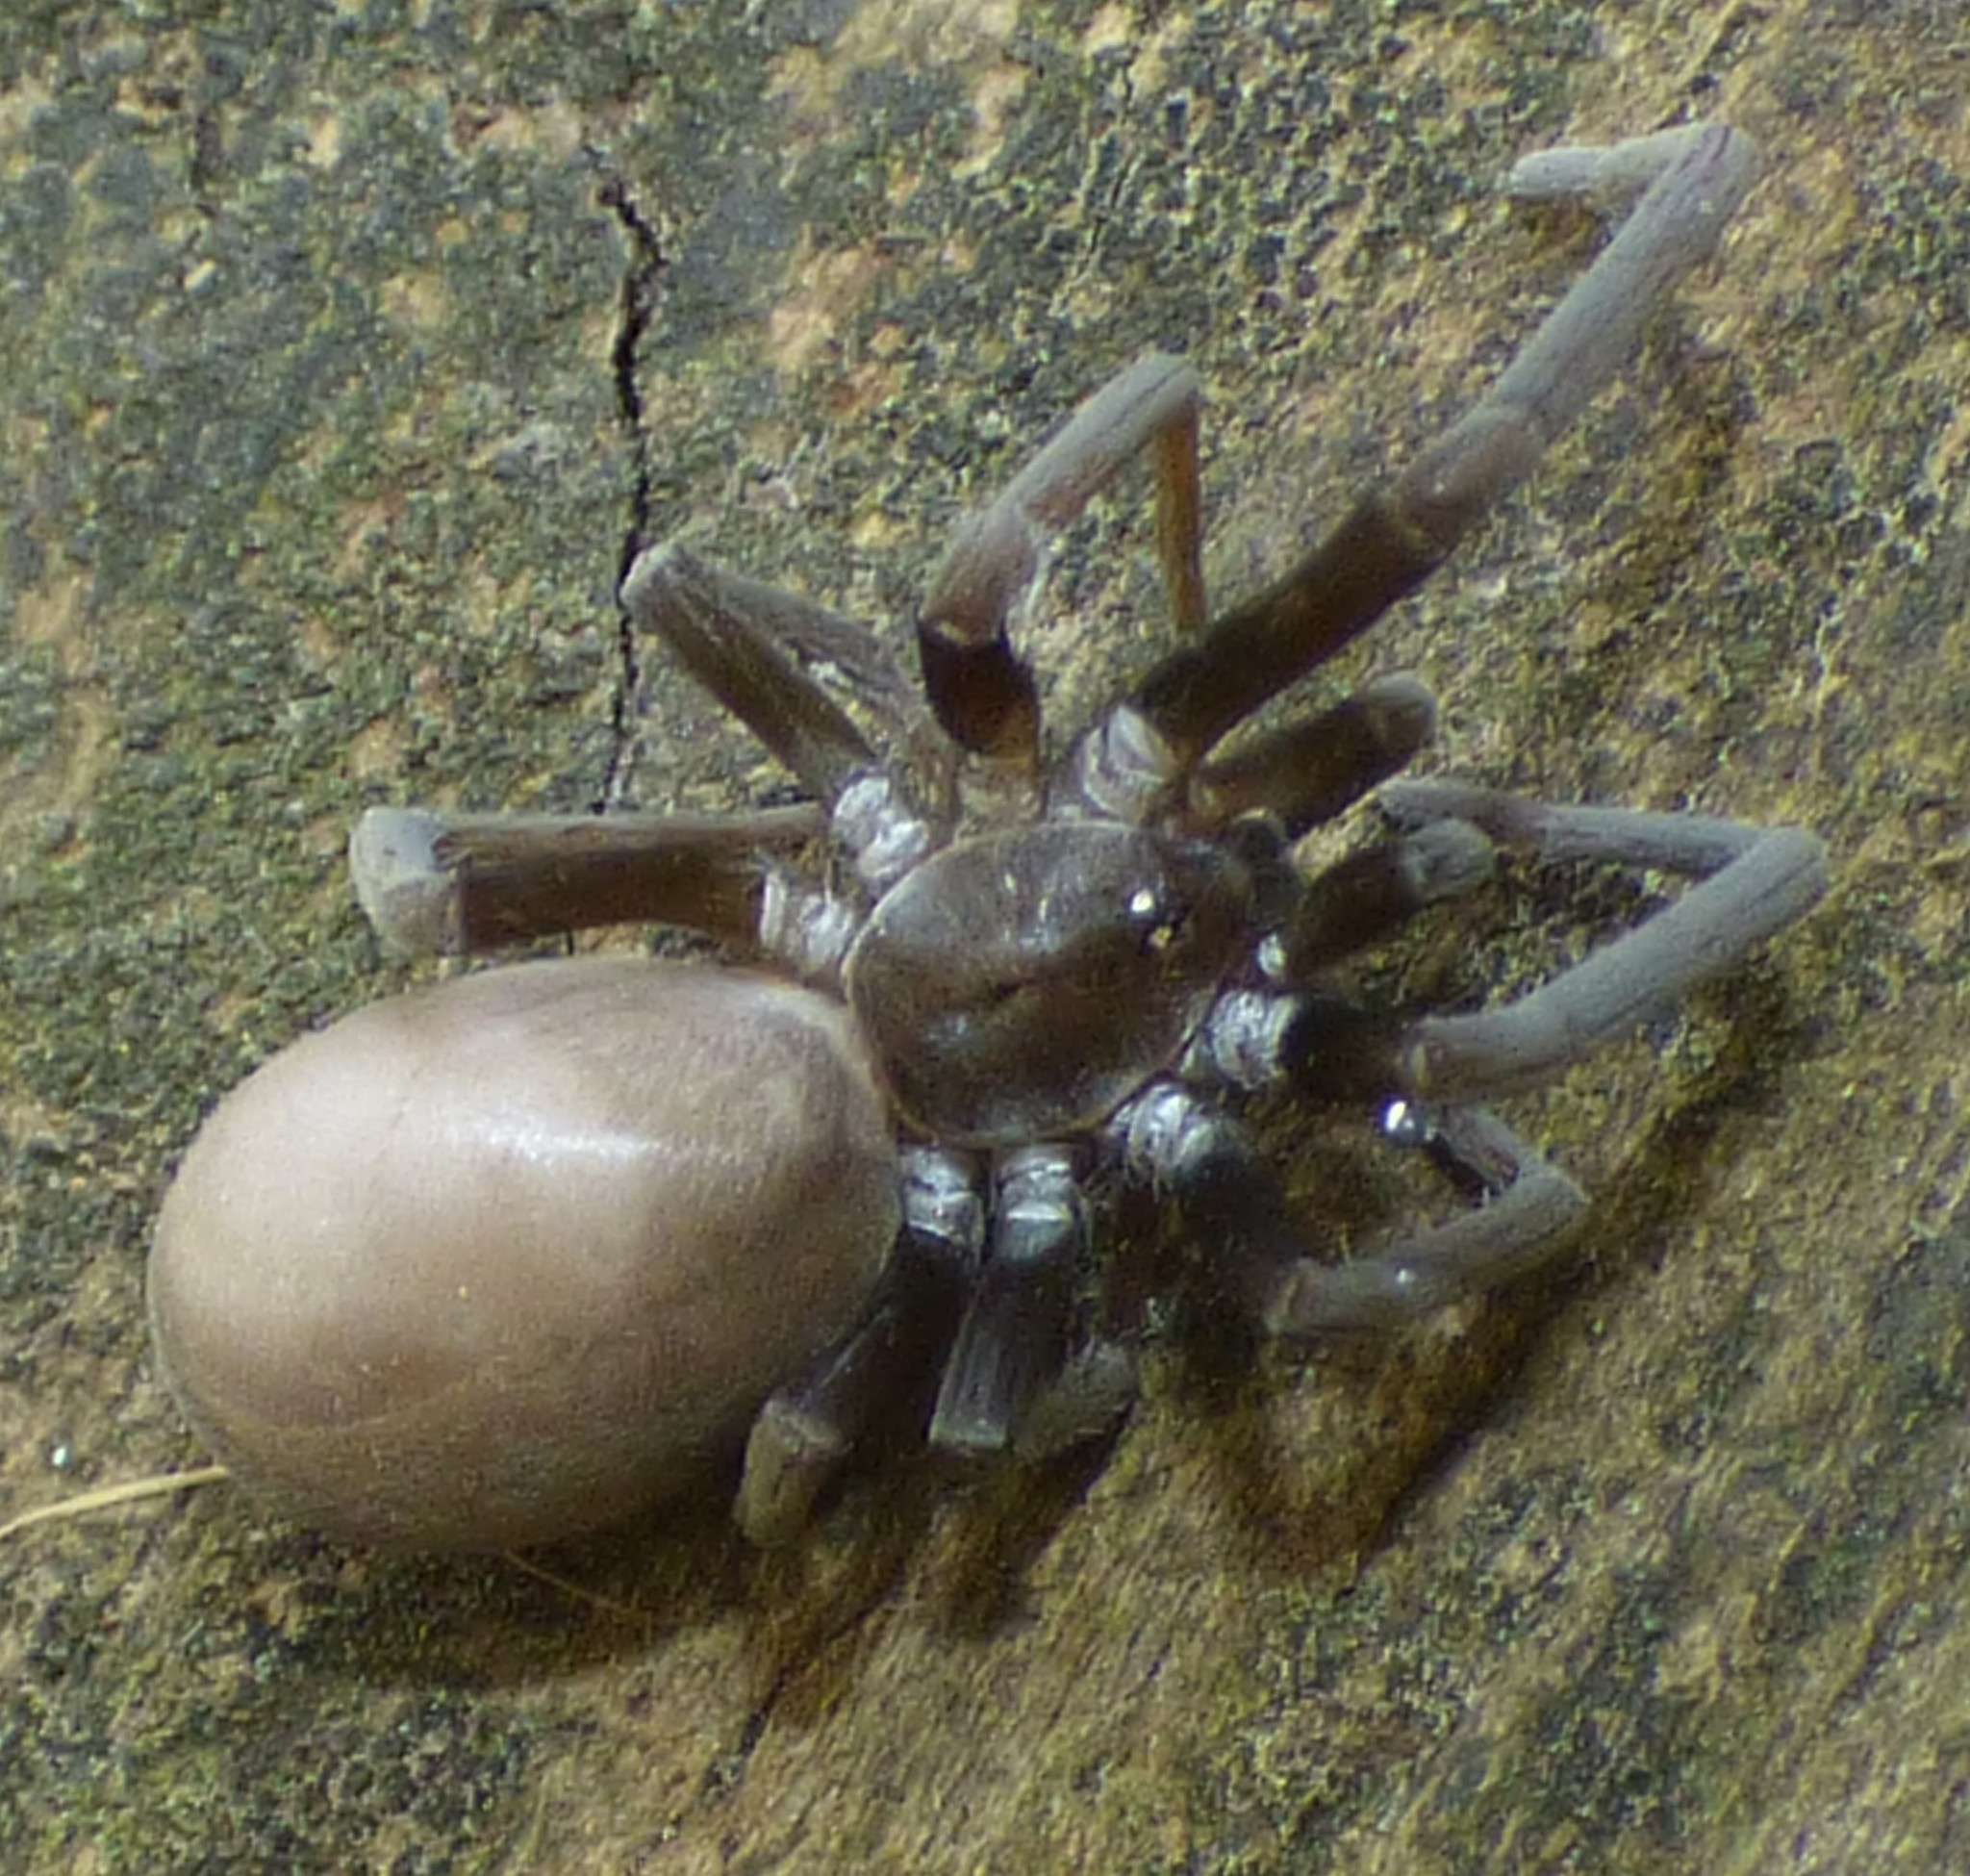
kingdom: Animalia
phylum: Arthropoda
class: Arachnida
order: Araneae
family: Filistatidae
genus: Kukulcania
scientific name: Kukulcania hibernalis
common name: Crevice weaver
